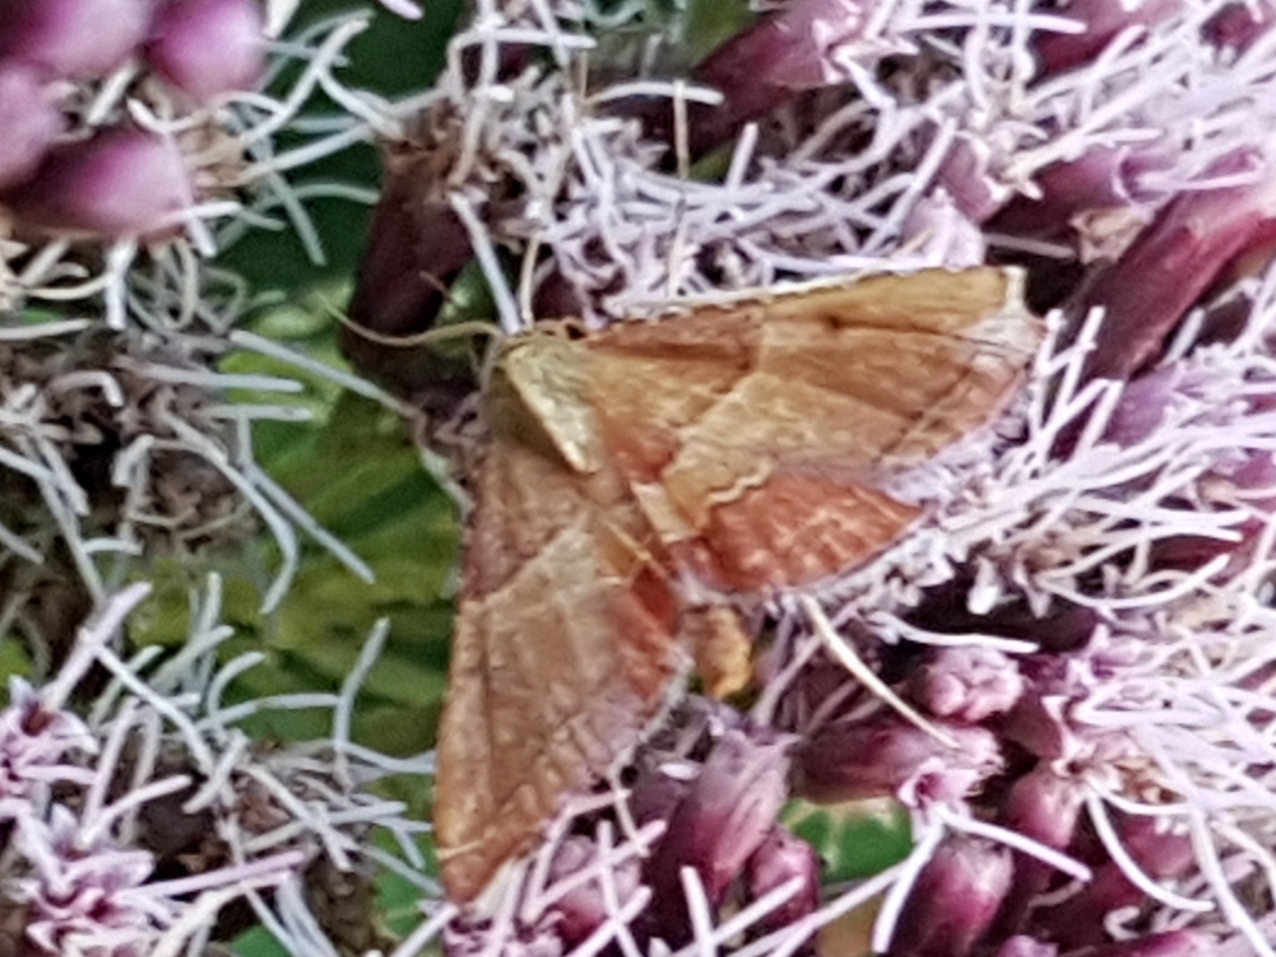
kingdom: Animalia
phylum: Arthropoda
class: Insecta
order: Lepidoptera
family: Pyralidae
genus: Endotricha
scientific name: Endotricha flammealis
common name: Rosy tabby
